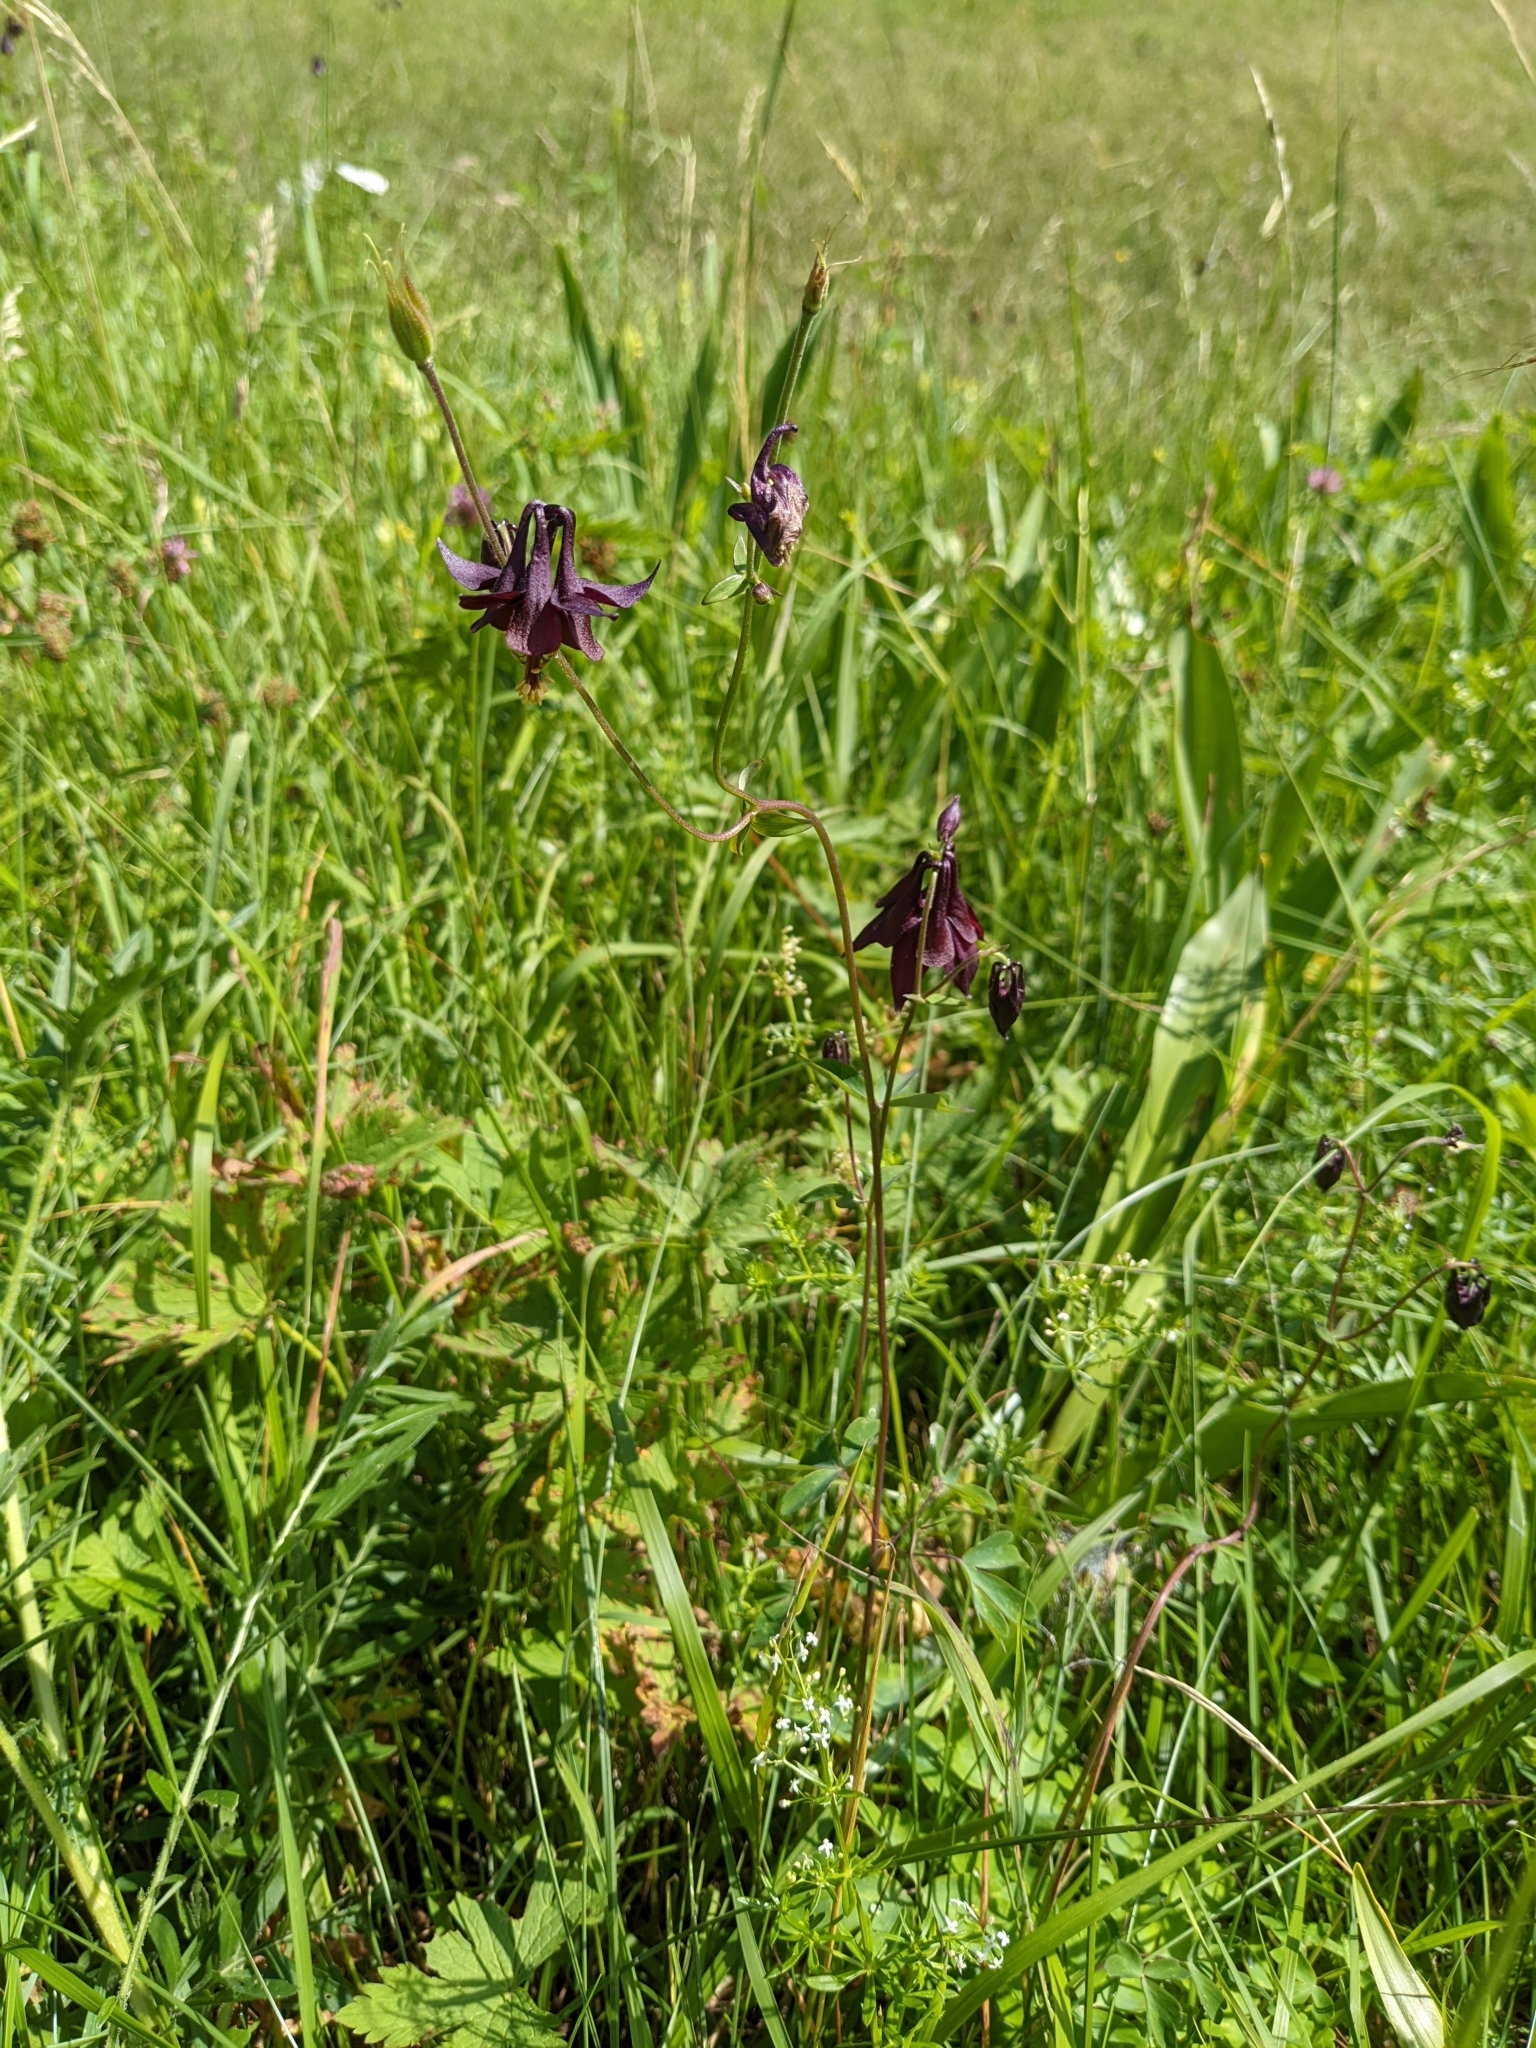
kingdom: Plantae
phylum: Tracheophyta
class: Magnoliopsida
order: Ranunculales
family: Ranunculaceae
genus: Aquilegia
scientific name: Aquilegia atrata
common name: Dark columbine
